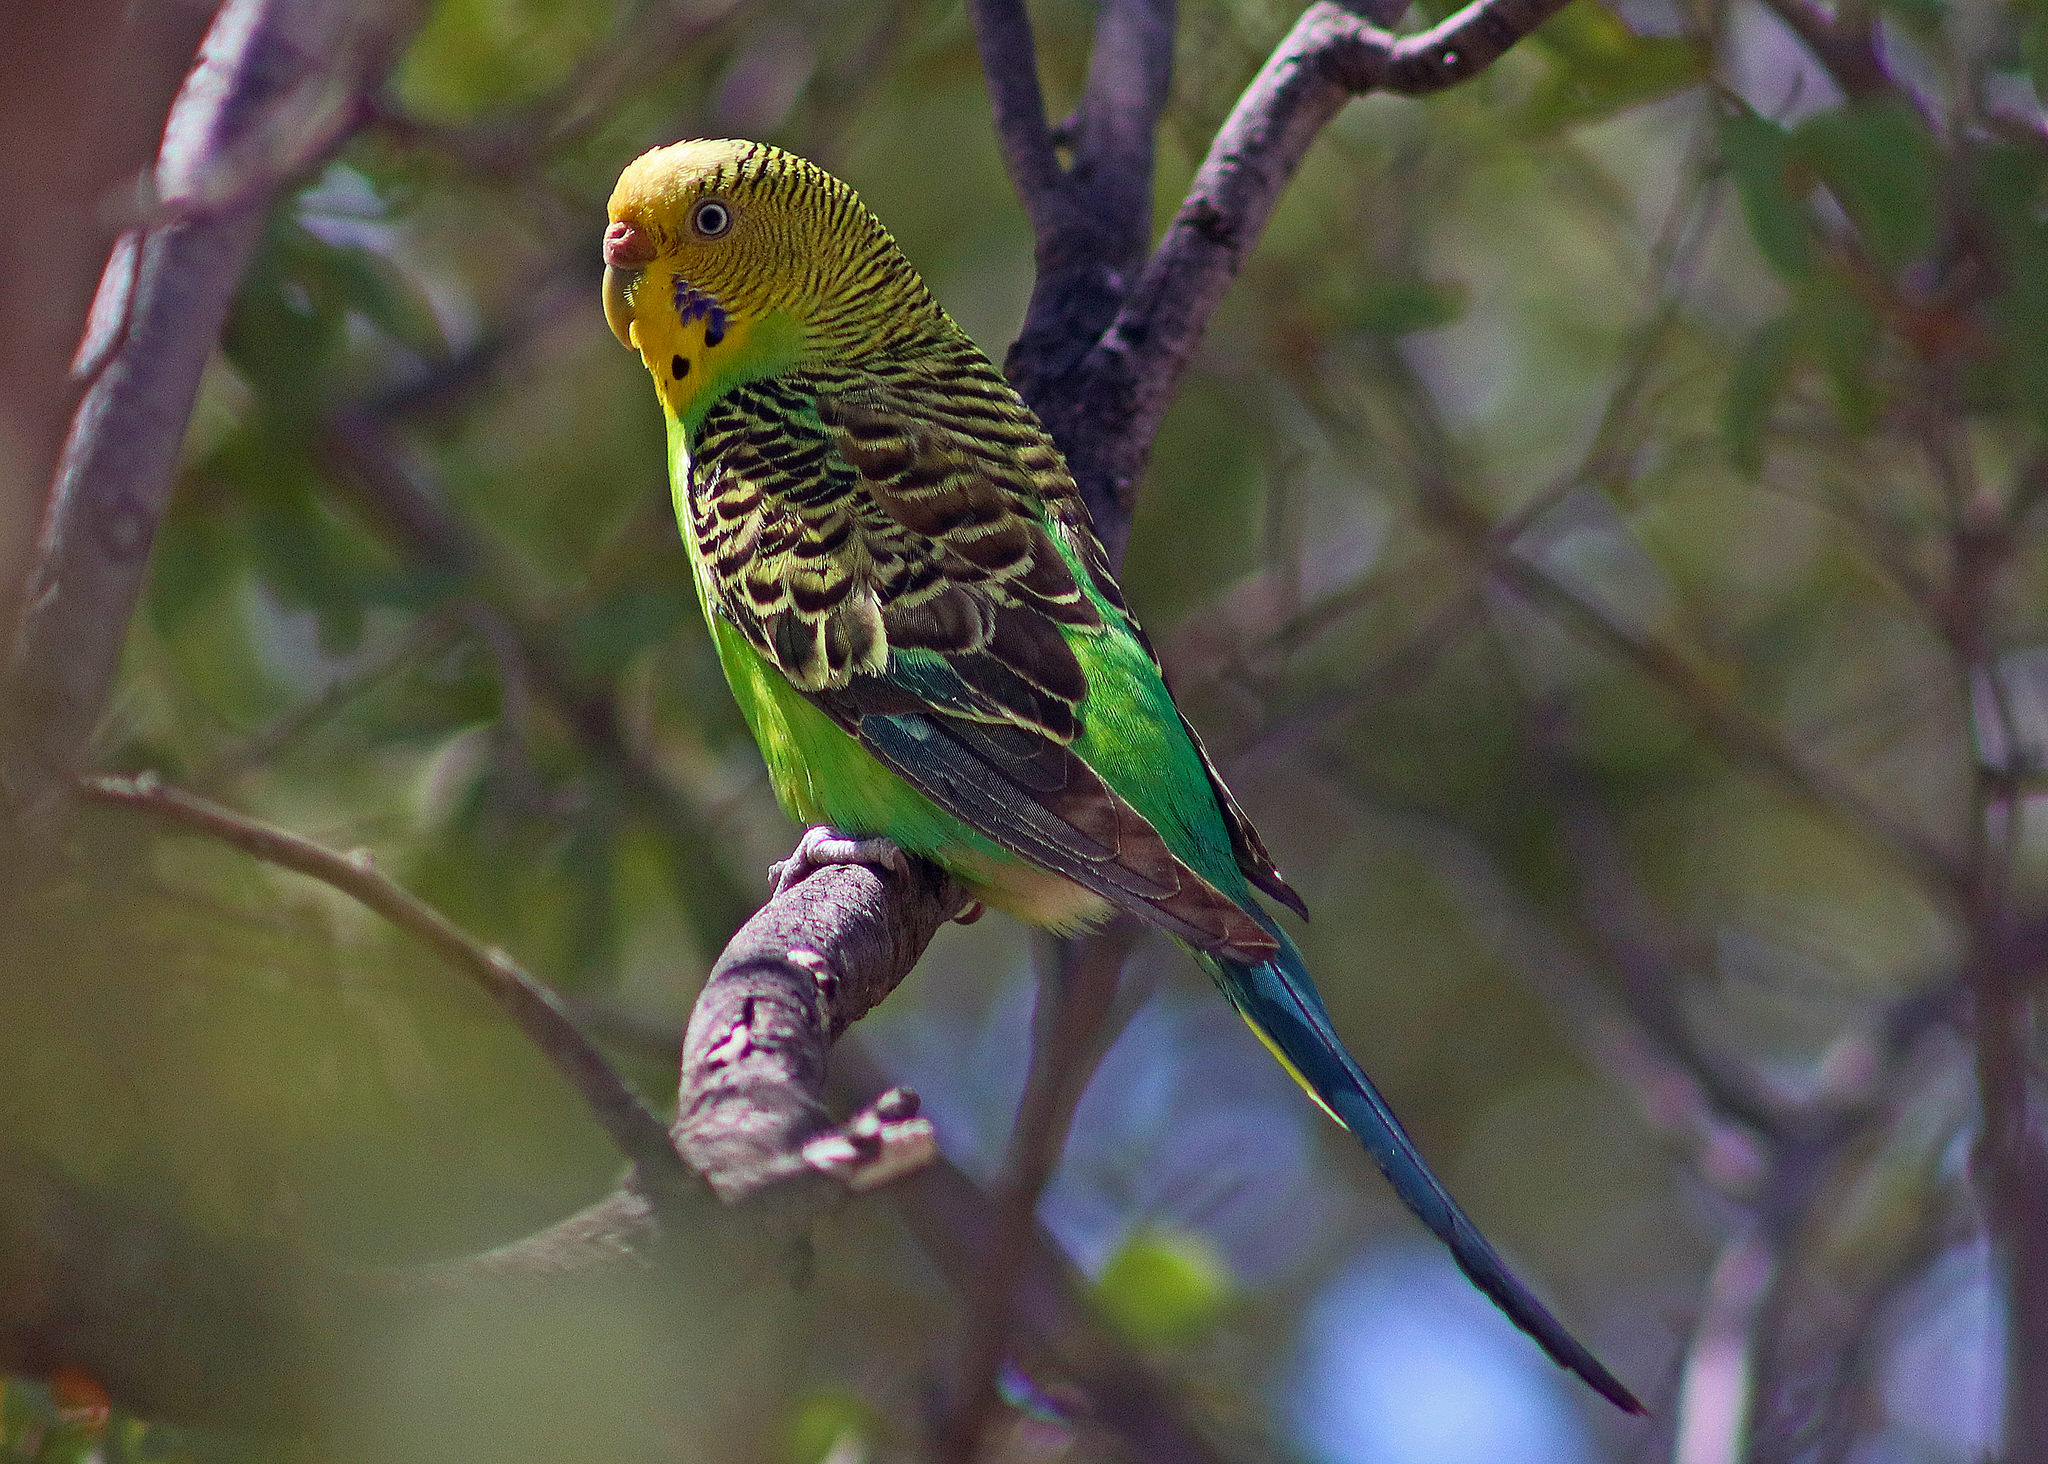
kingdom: Animalia
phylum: Chordata
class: Aves
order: Psittaciformes
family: Psittacidae
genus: Melopsittacus
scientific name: Melopsittacus undulatus
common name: Budgerigar
